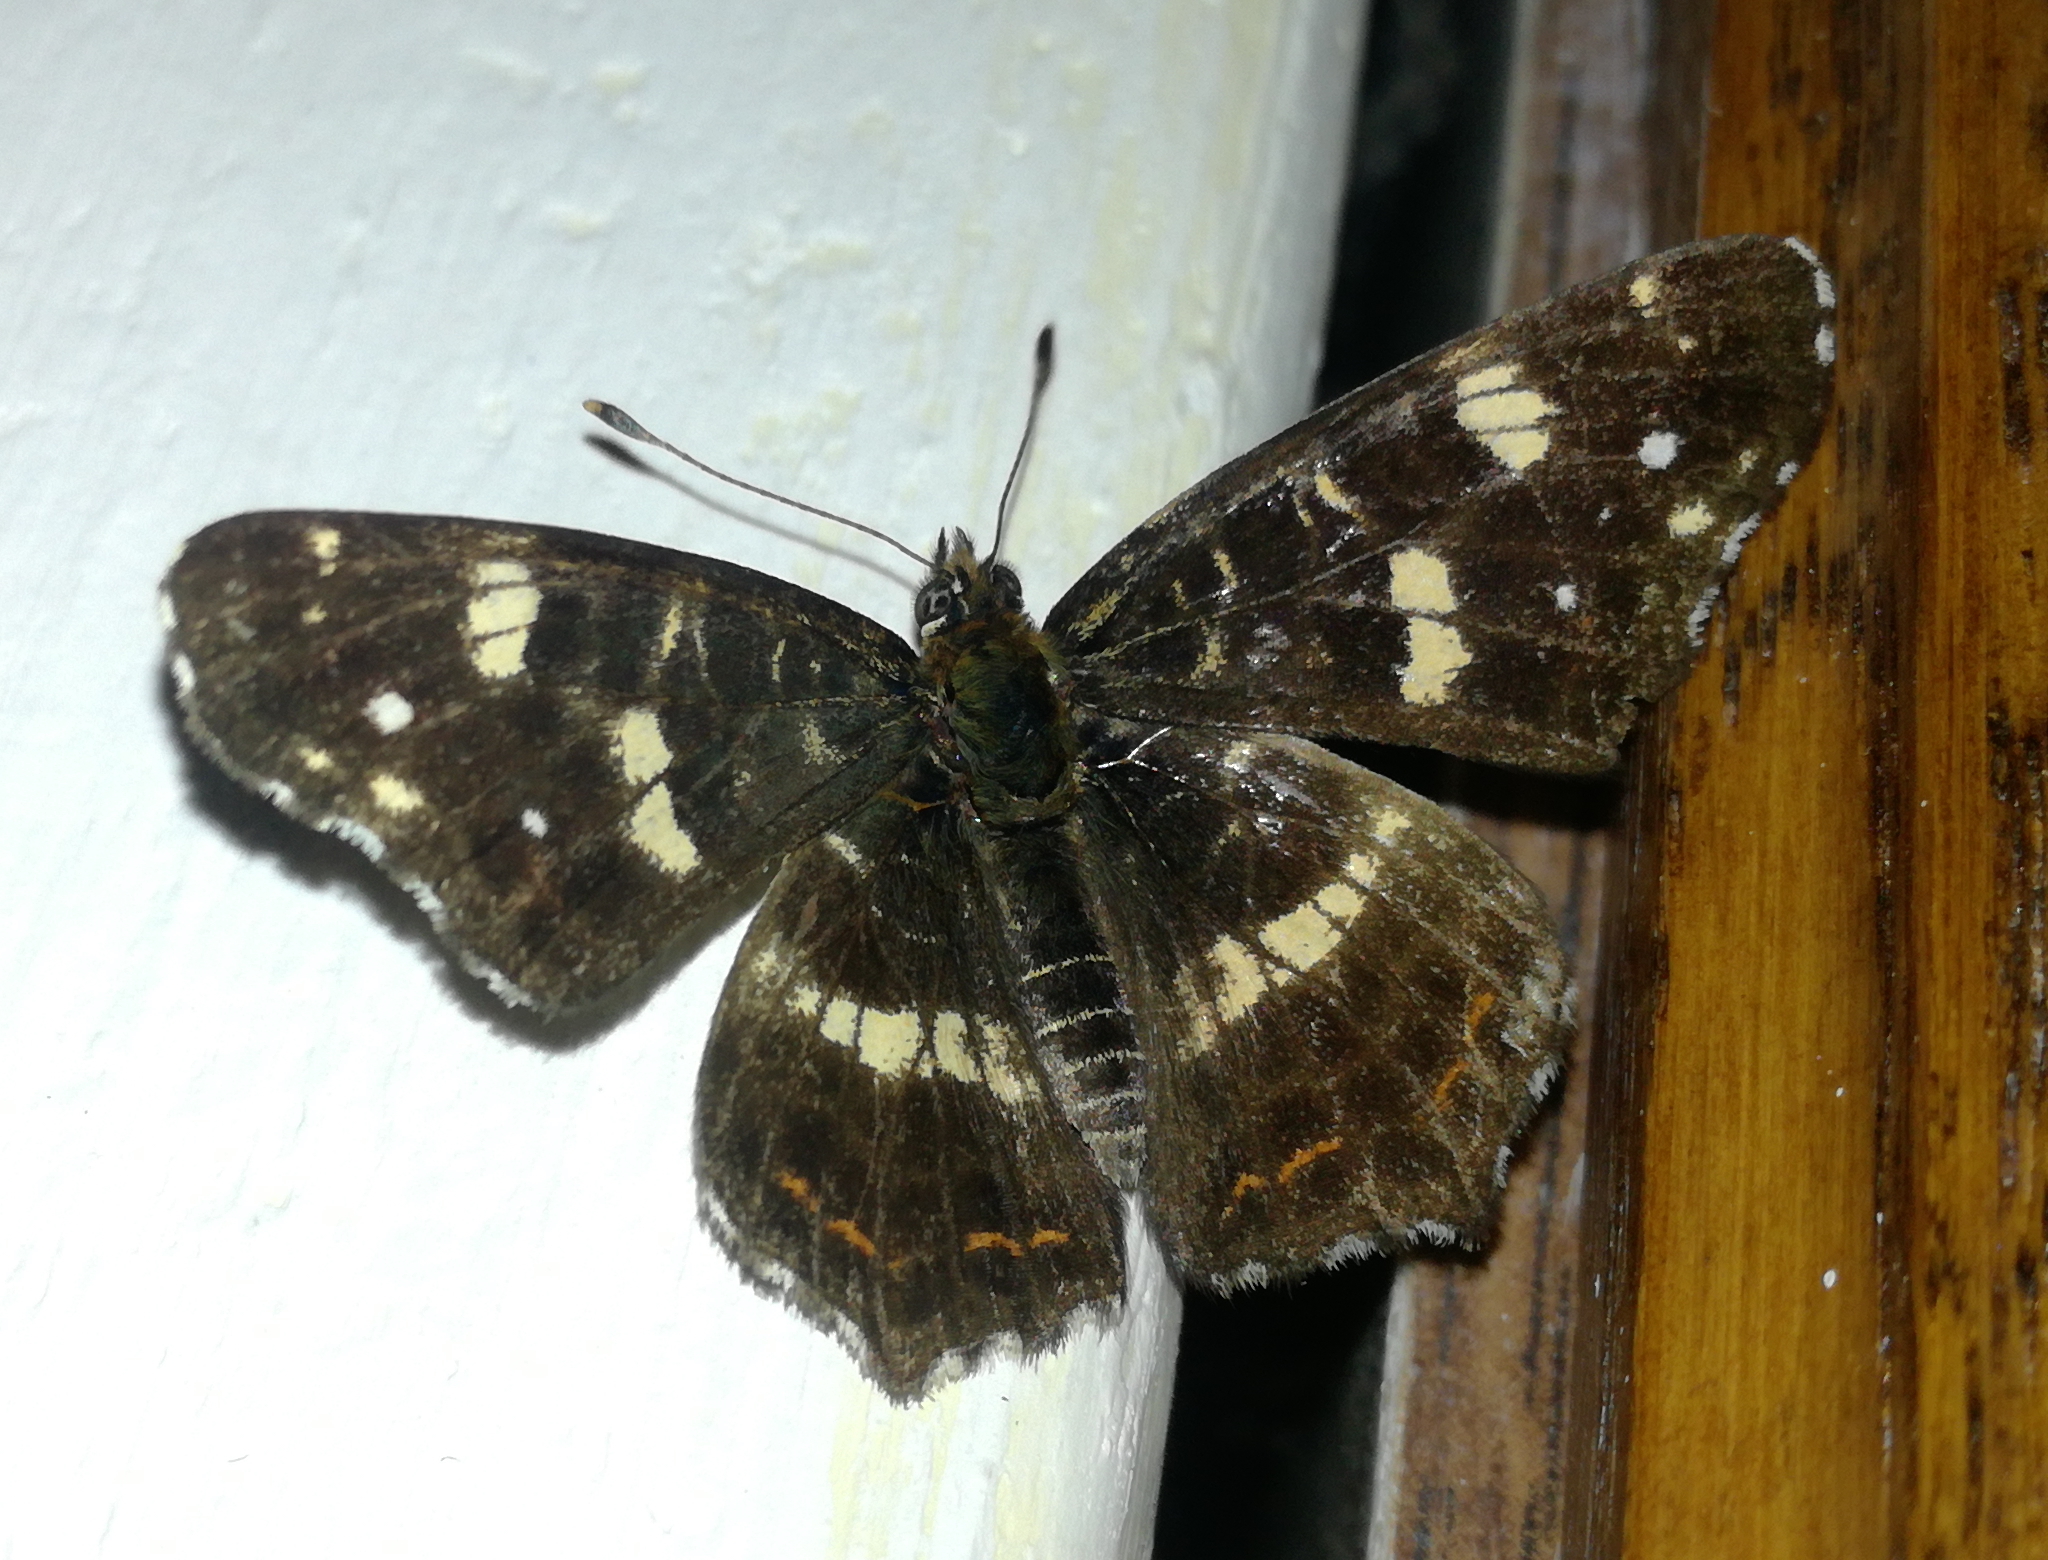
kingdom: Animalia
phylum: Arthropoda
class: Insecta
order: Lepidoptera
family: Nymphalidae
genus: Araschnia
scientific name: Araschnia levana
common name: Map butterfly
